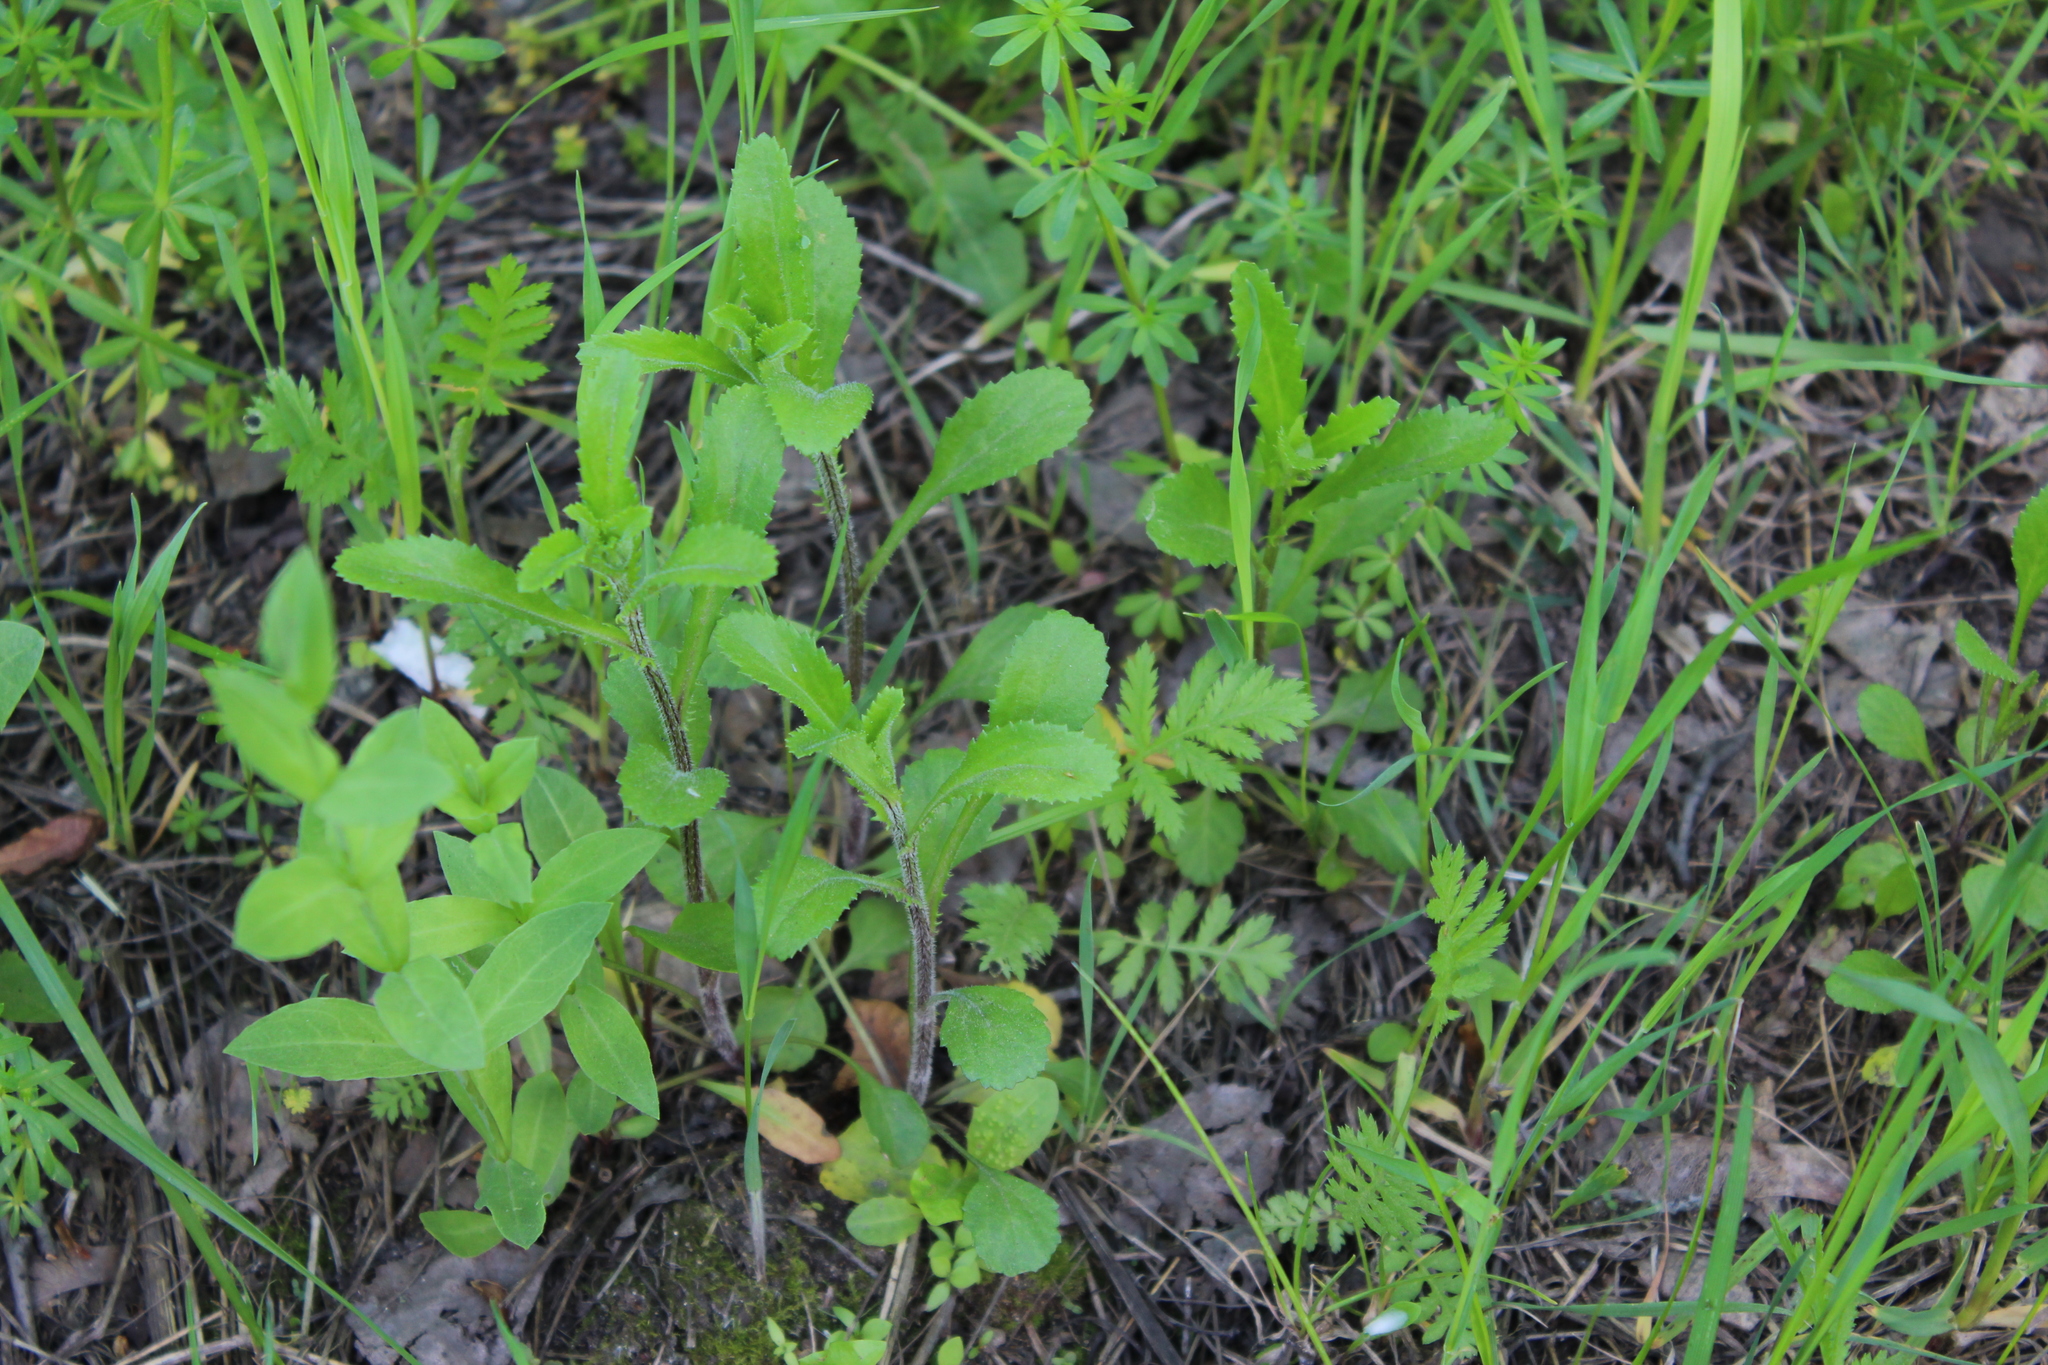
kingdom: Plantae
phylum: Tracheophyta
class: Magnoliopsida
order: Asterales
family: Asteraceae
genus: Leucanthemum
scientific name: Leucanthemum vulgare
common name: Oxeye daisy
